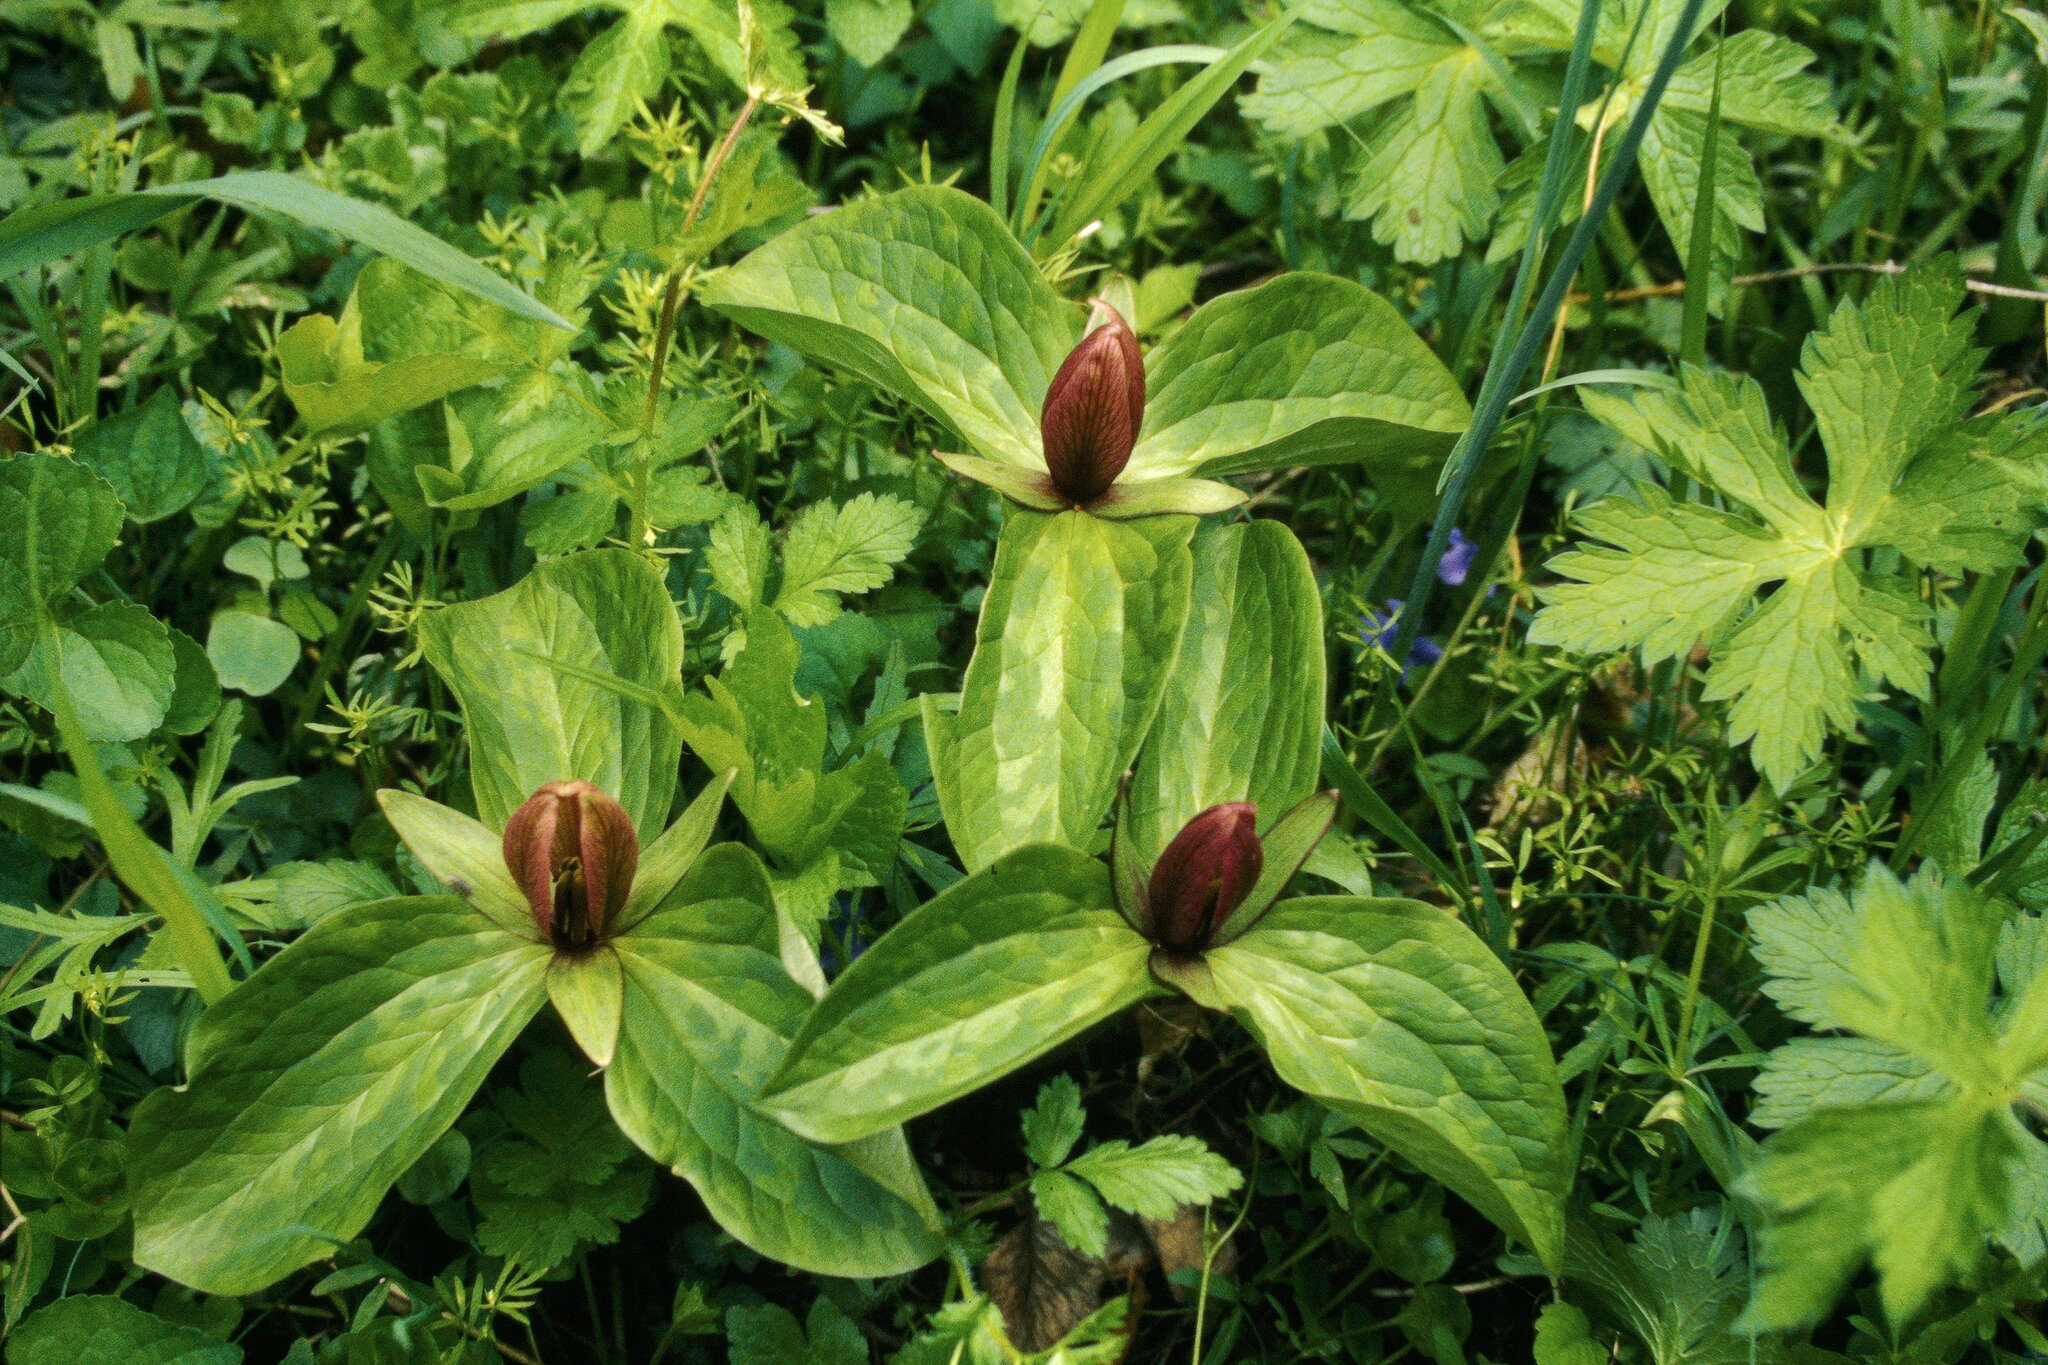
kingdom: Plantae
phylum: Tracheophyta
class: Liliopsida
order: Liliales
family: Melanthiaceae
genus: Trillium
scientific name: Trillium sessile
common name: Sessile trillium
